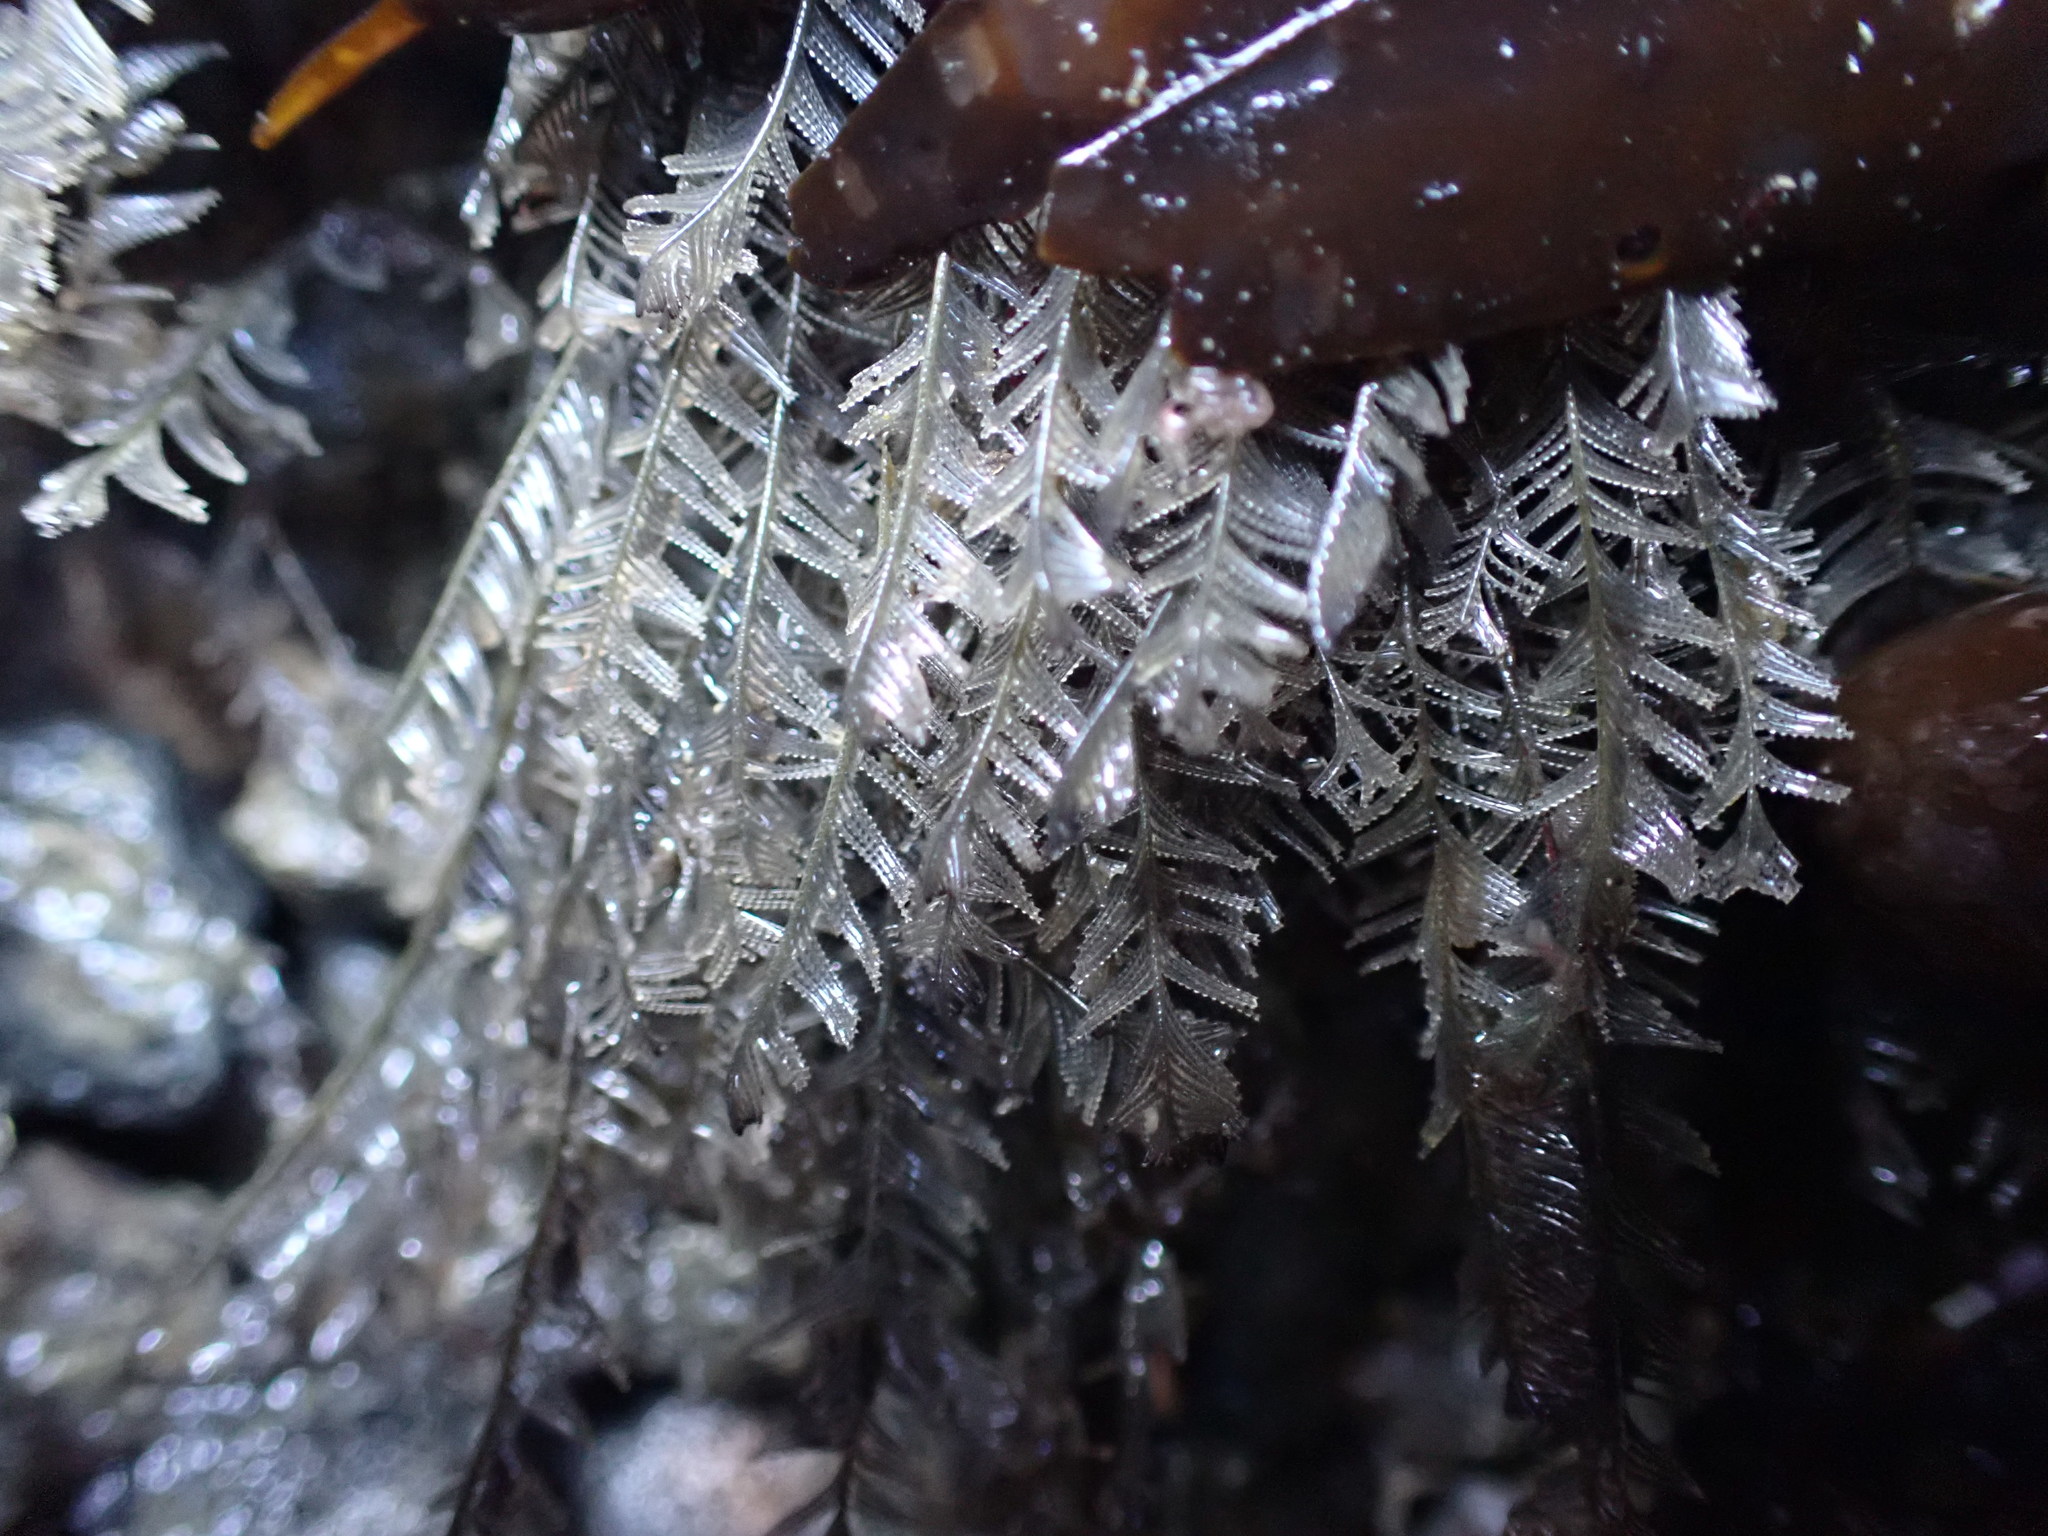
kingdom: Animalia
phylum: Cnidaria
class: Hydrozoa
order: Leptothecata
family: Aglaopheniidae
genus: Aglaophenia
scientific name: Aglaophenia plumosa
